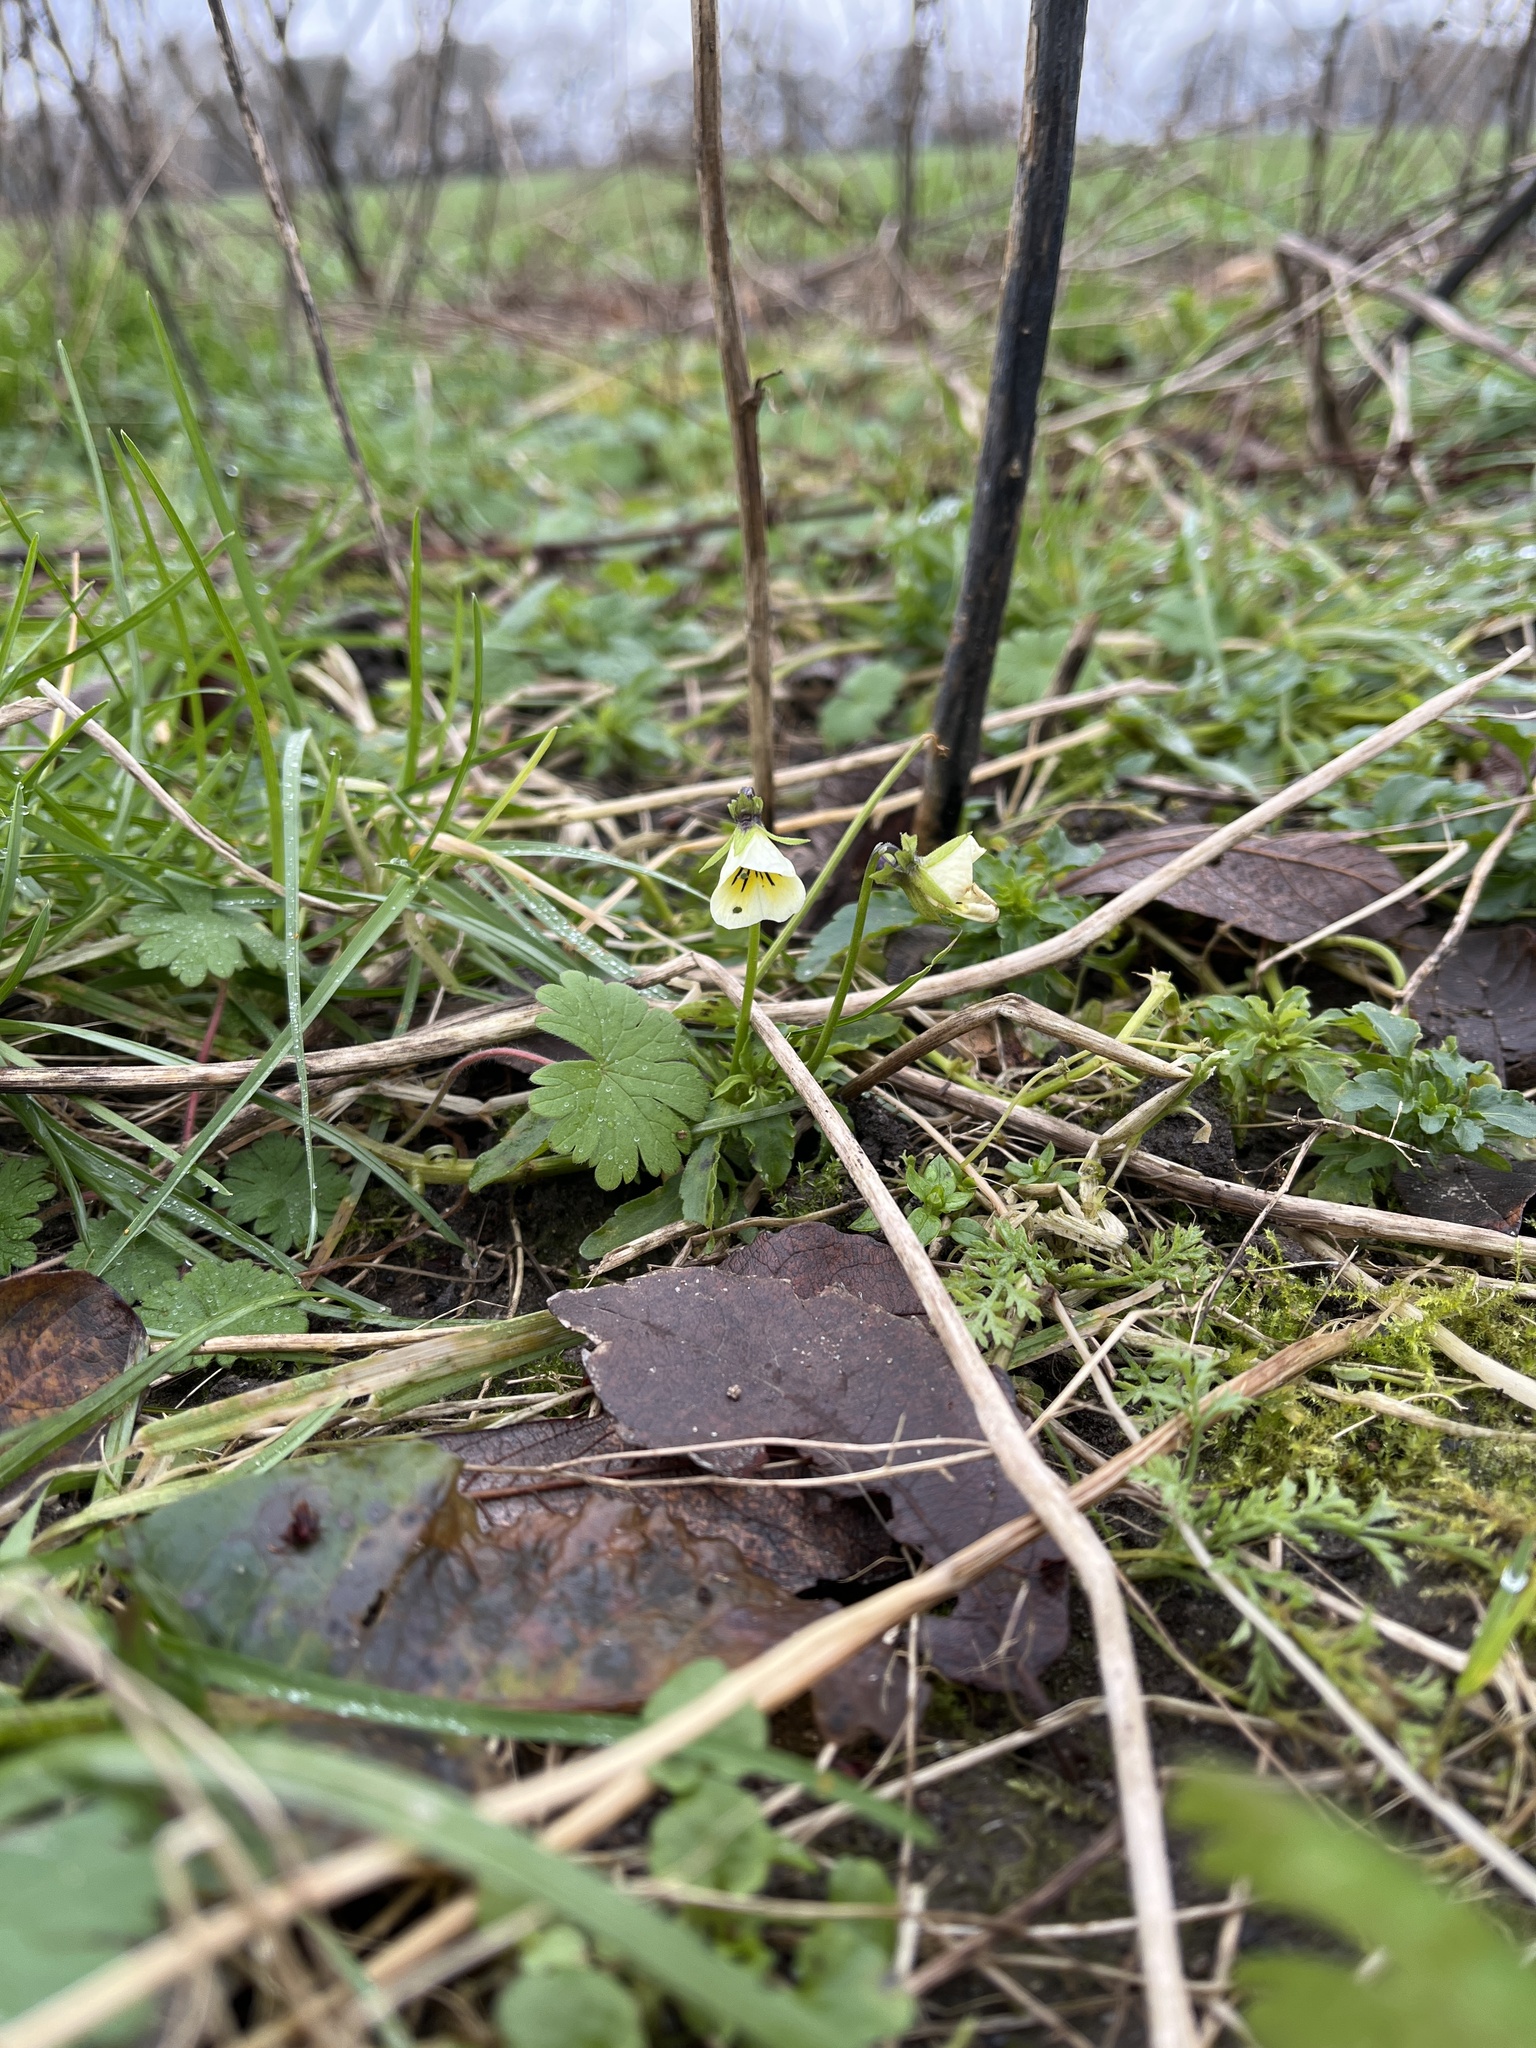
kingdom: Plantae
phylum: Tracheophyta
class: Magnoliopsida
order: Malpighiales
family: Violaceae
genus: Viola
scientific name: Viola arvensis
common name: Field pansy
